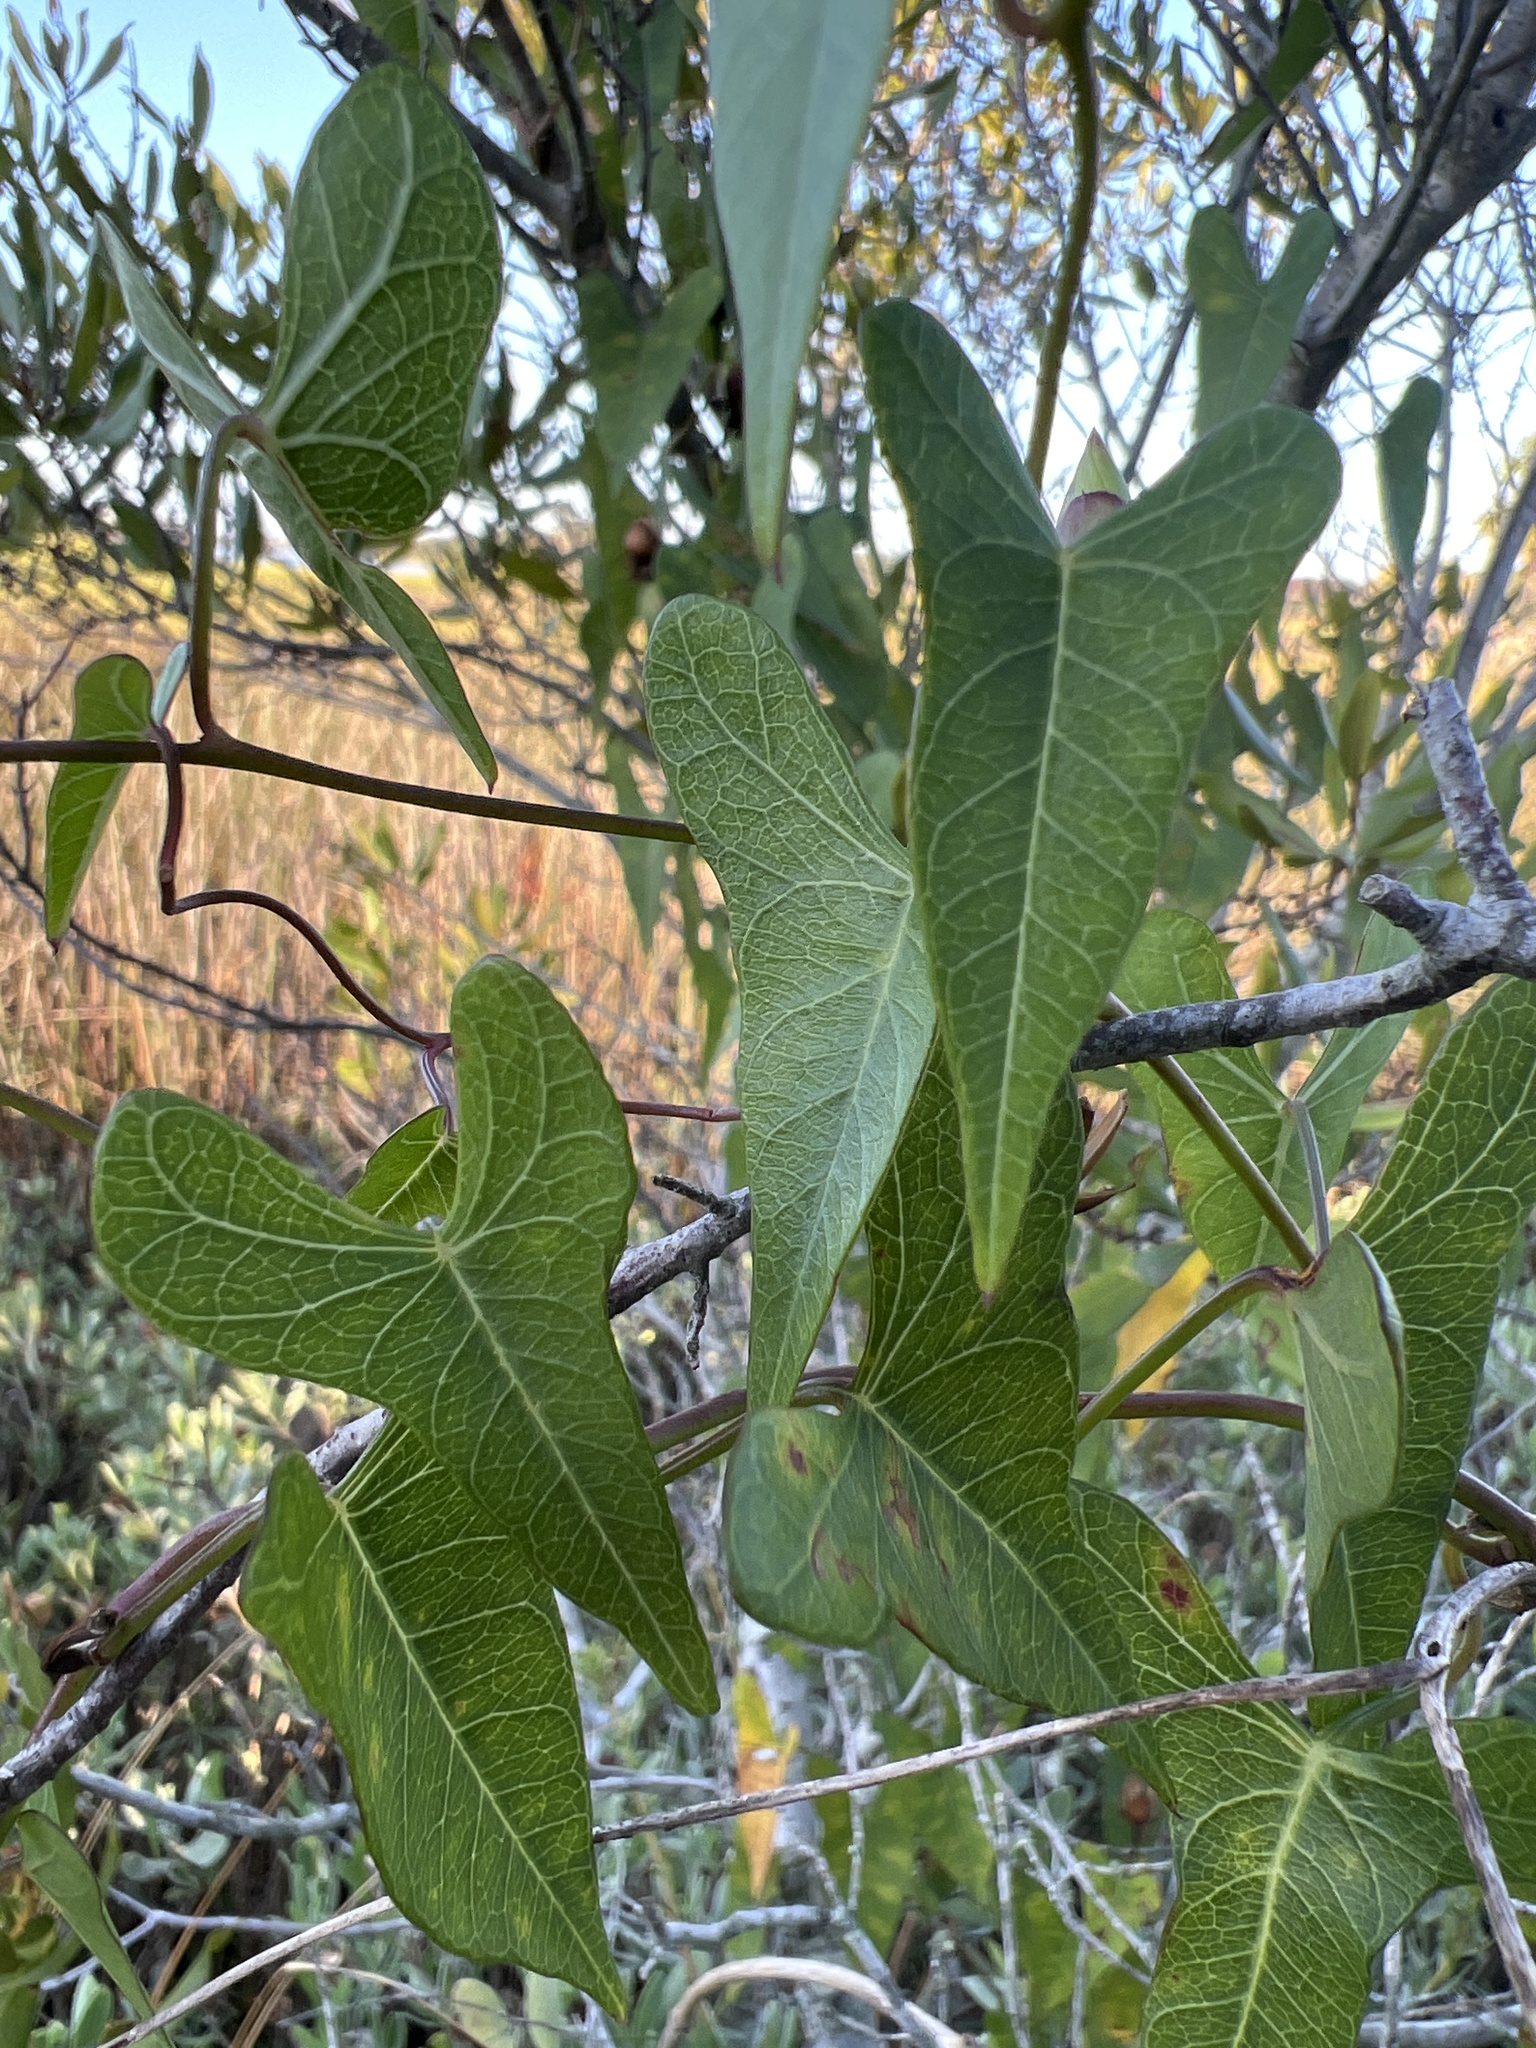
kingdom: Plantae
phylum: Tracheophyta
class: Magnoliopsida
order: Solanales
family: Convolvulaceae
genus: Ipomoea
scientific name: Ipomoea sagittata
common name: Saltmarsh morning glory
